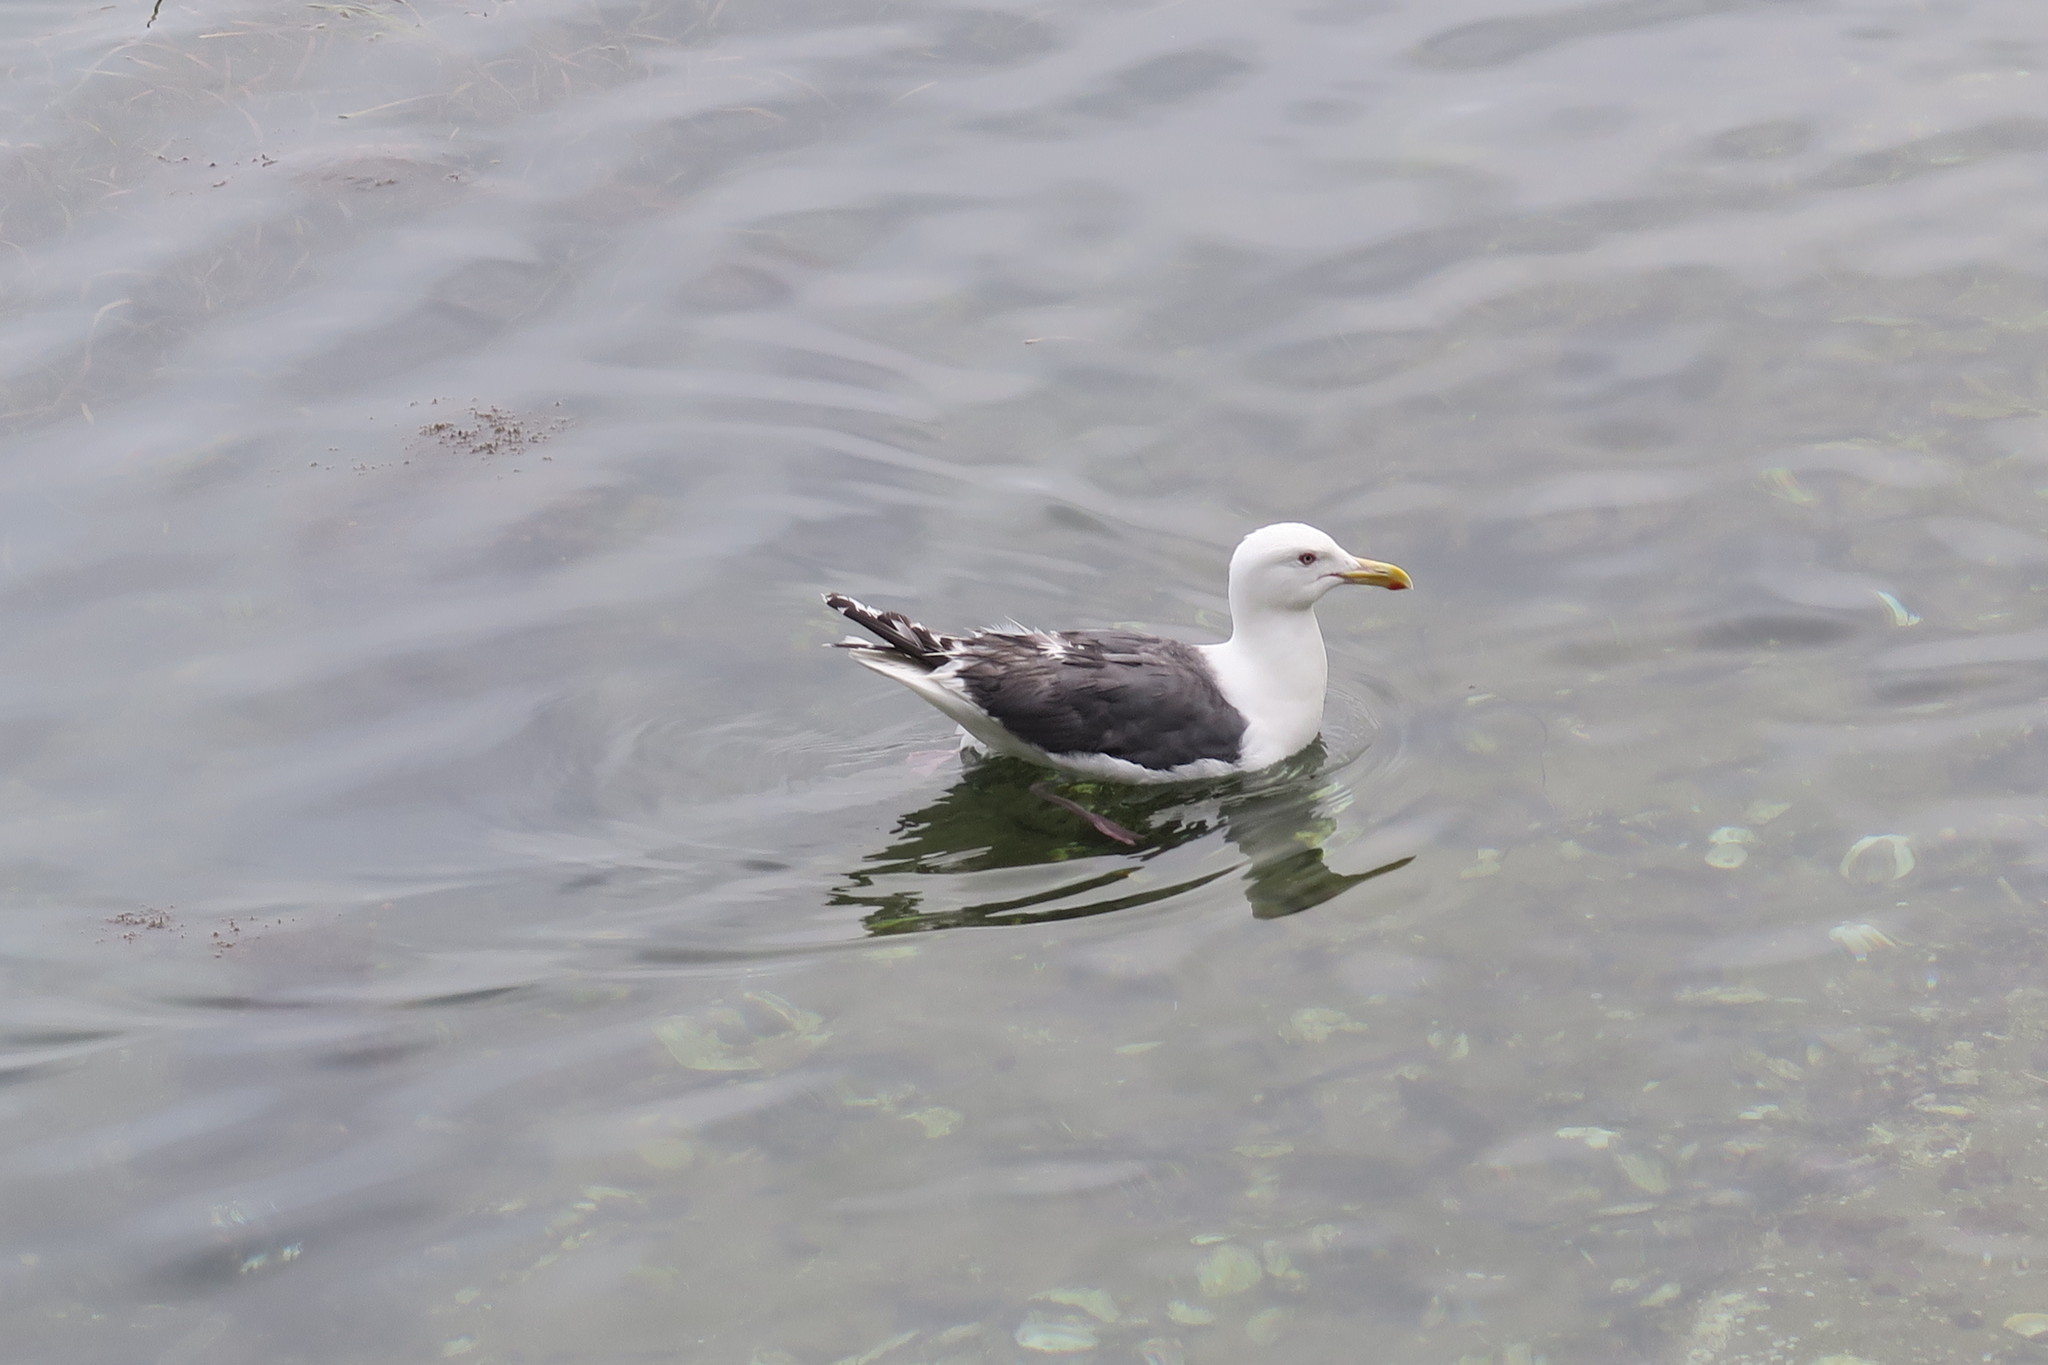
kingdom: Animalia
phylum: Chordata
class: Aves
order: Charadriiformes
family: Laridae
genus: Larus
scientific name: Larus schistisagus
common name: Slaty-backed gull
